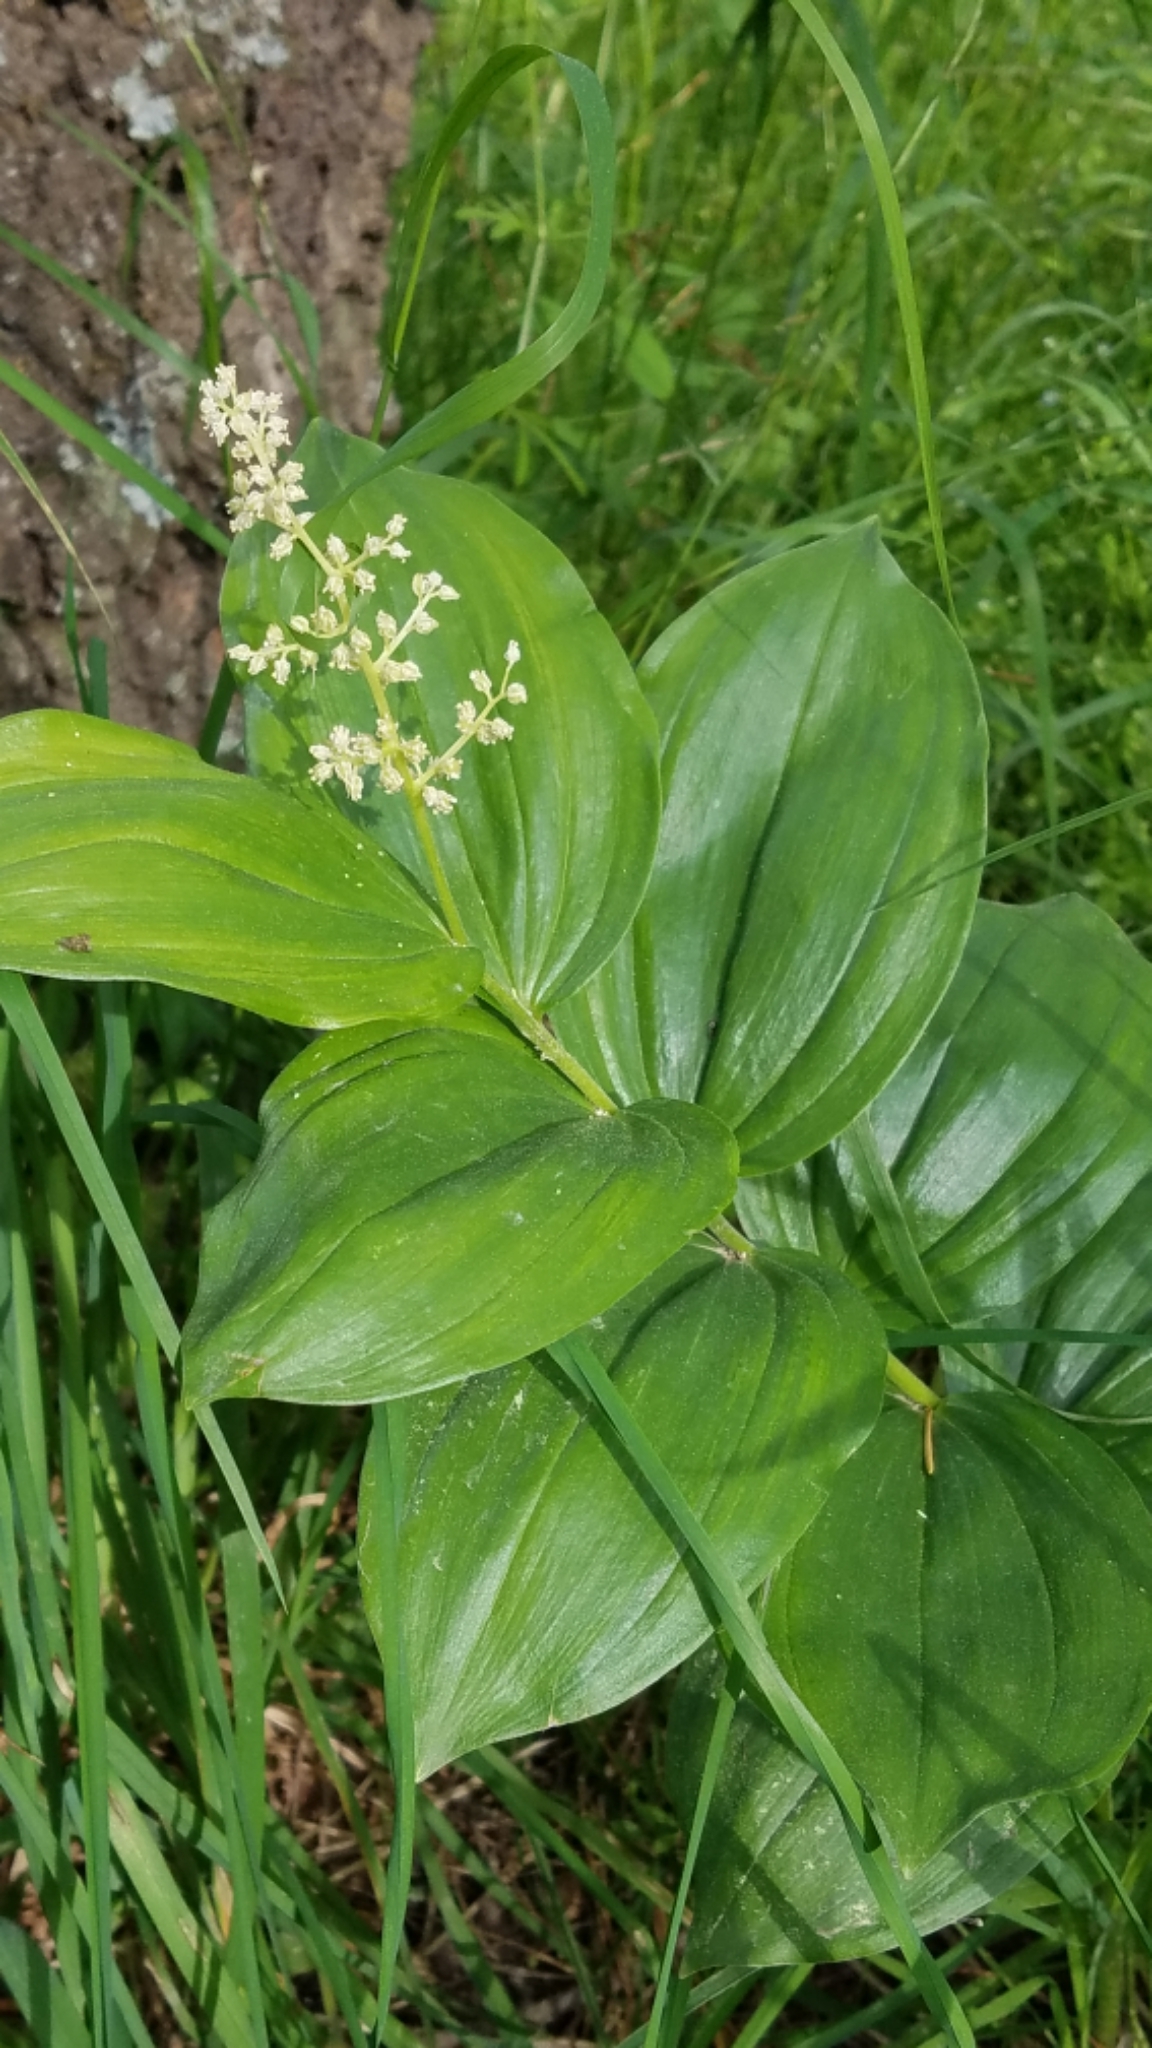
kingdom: Plantae
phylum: Tracheophyta
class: Liliopsida
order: Asparagales
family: Asparagaceae
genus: Maianthemum
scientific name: Maianthemum racemosum
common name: False spikenard
